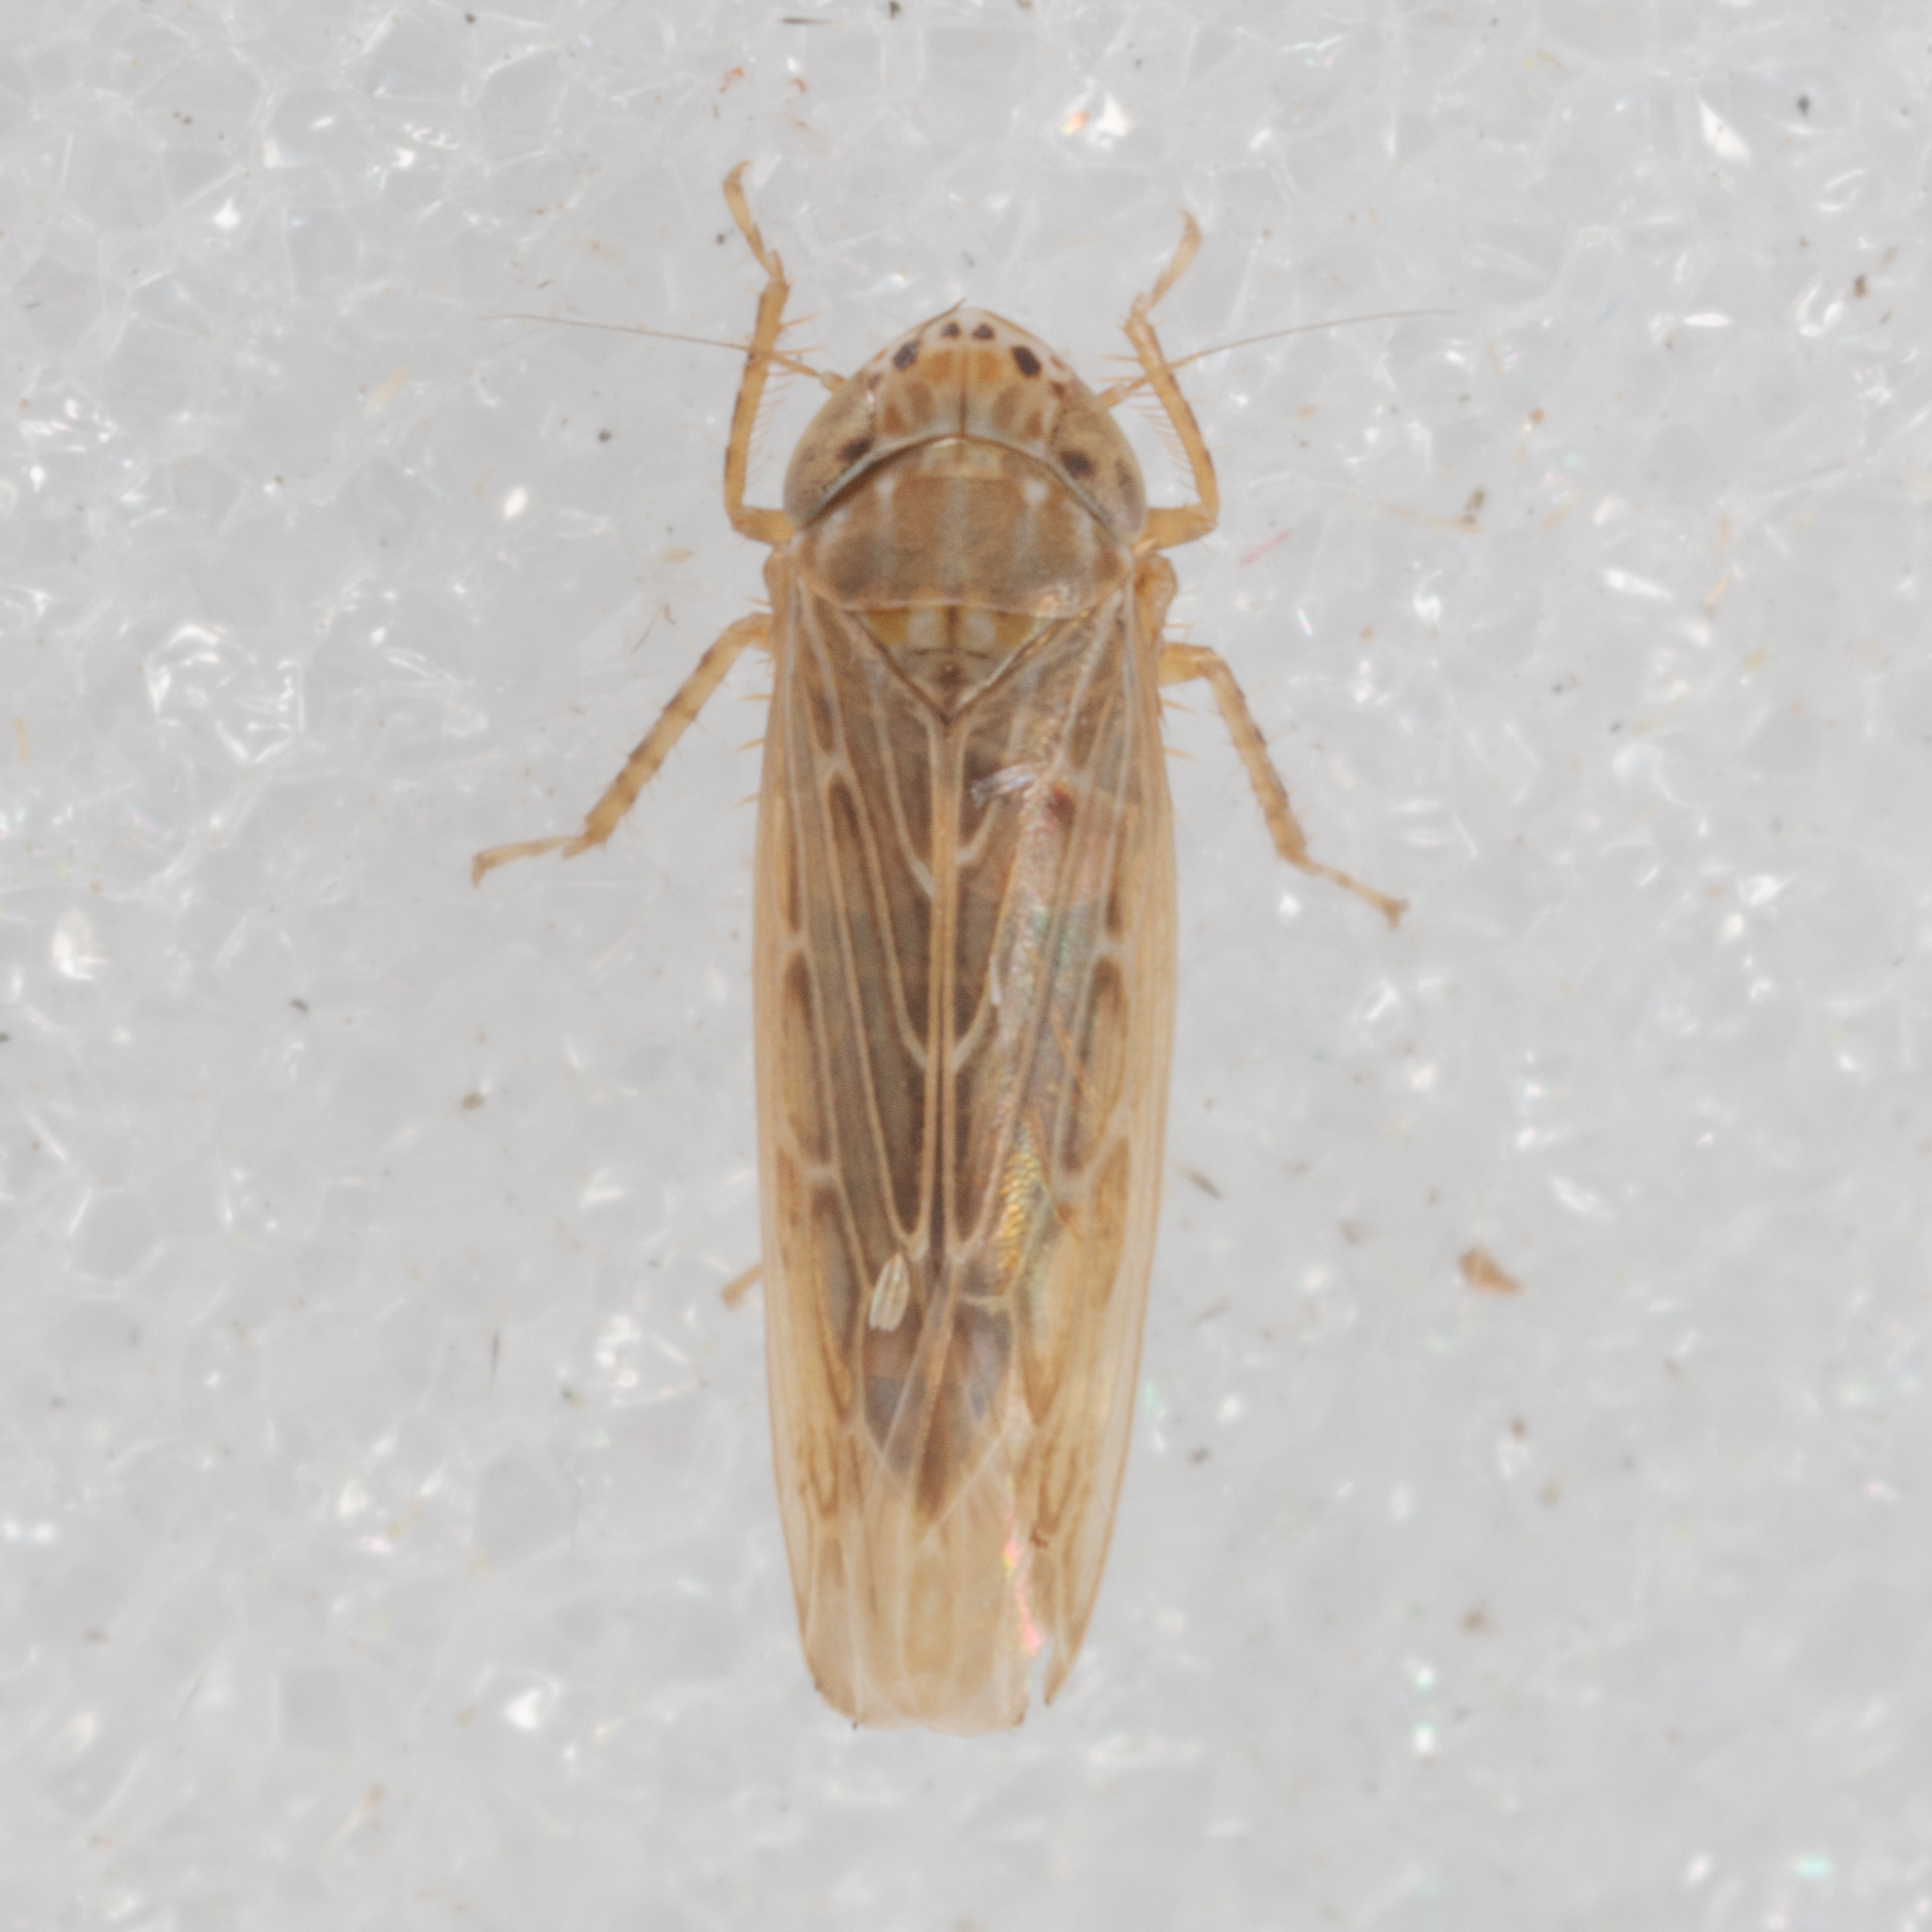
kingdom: Animalia
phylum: Arthropoda
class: Insecta
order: Hemiptera
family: Cicadellidae
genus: Graminella
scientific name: Graminella sonora
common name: Lesser lawn leafhopper
